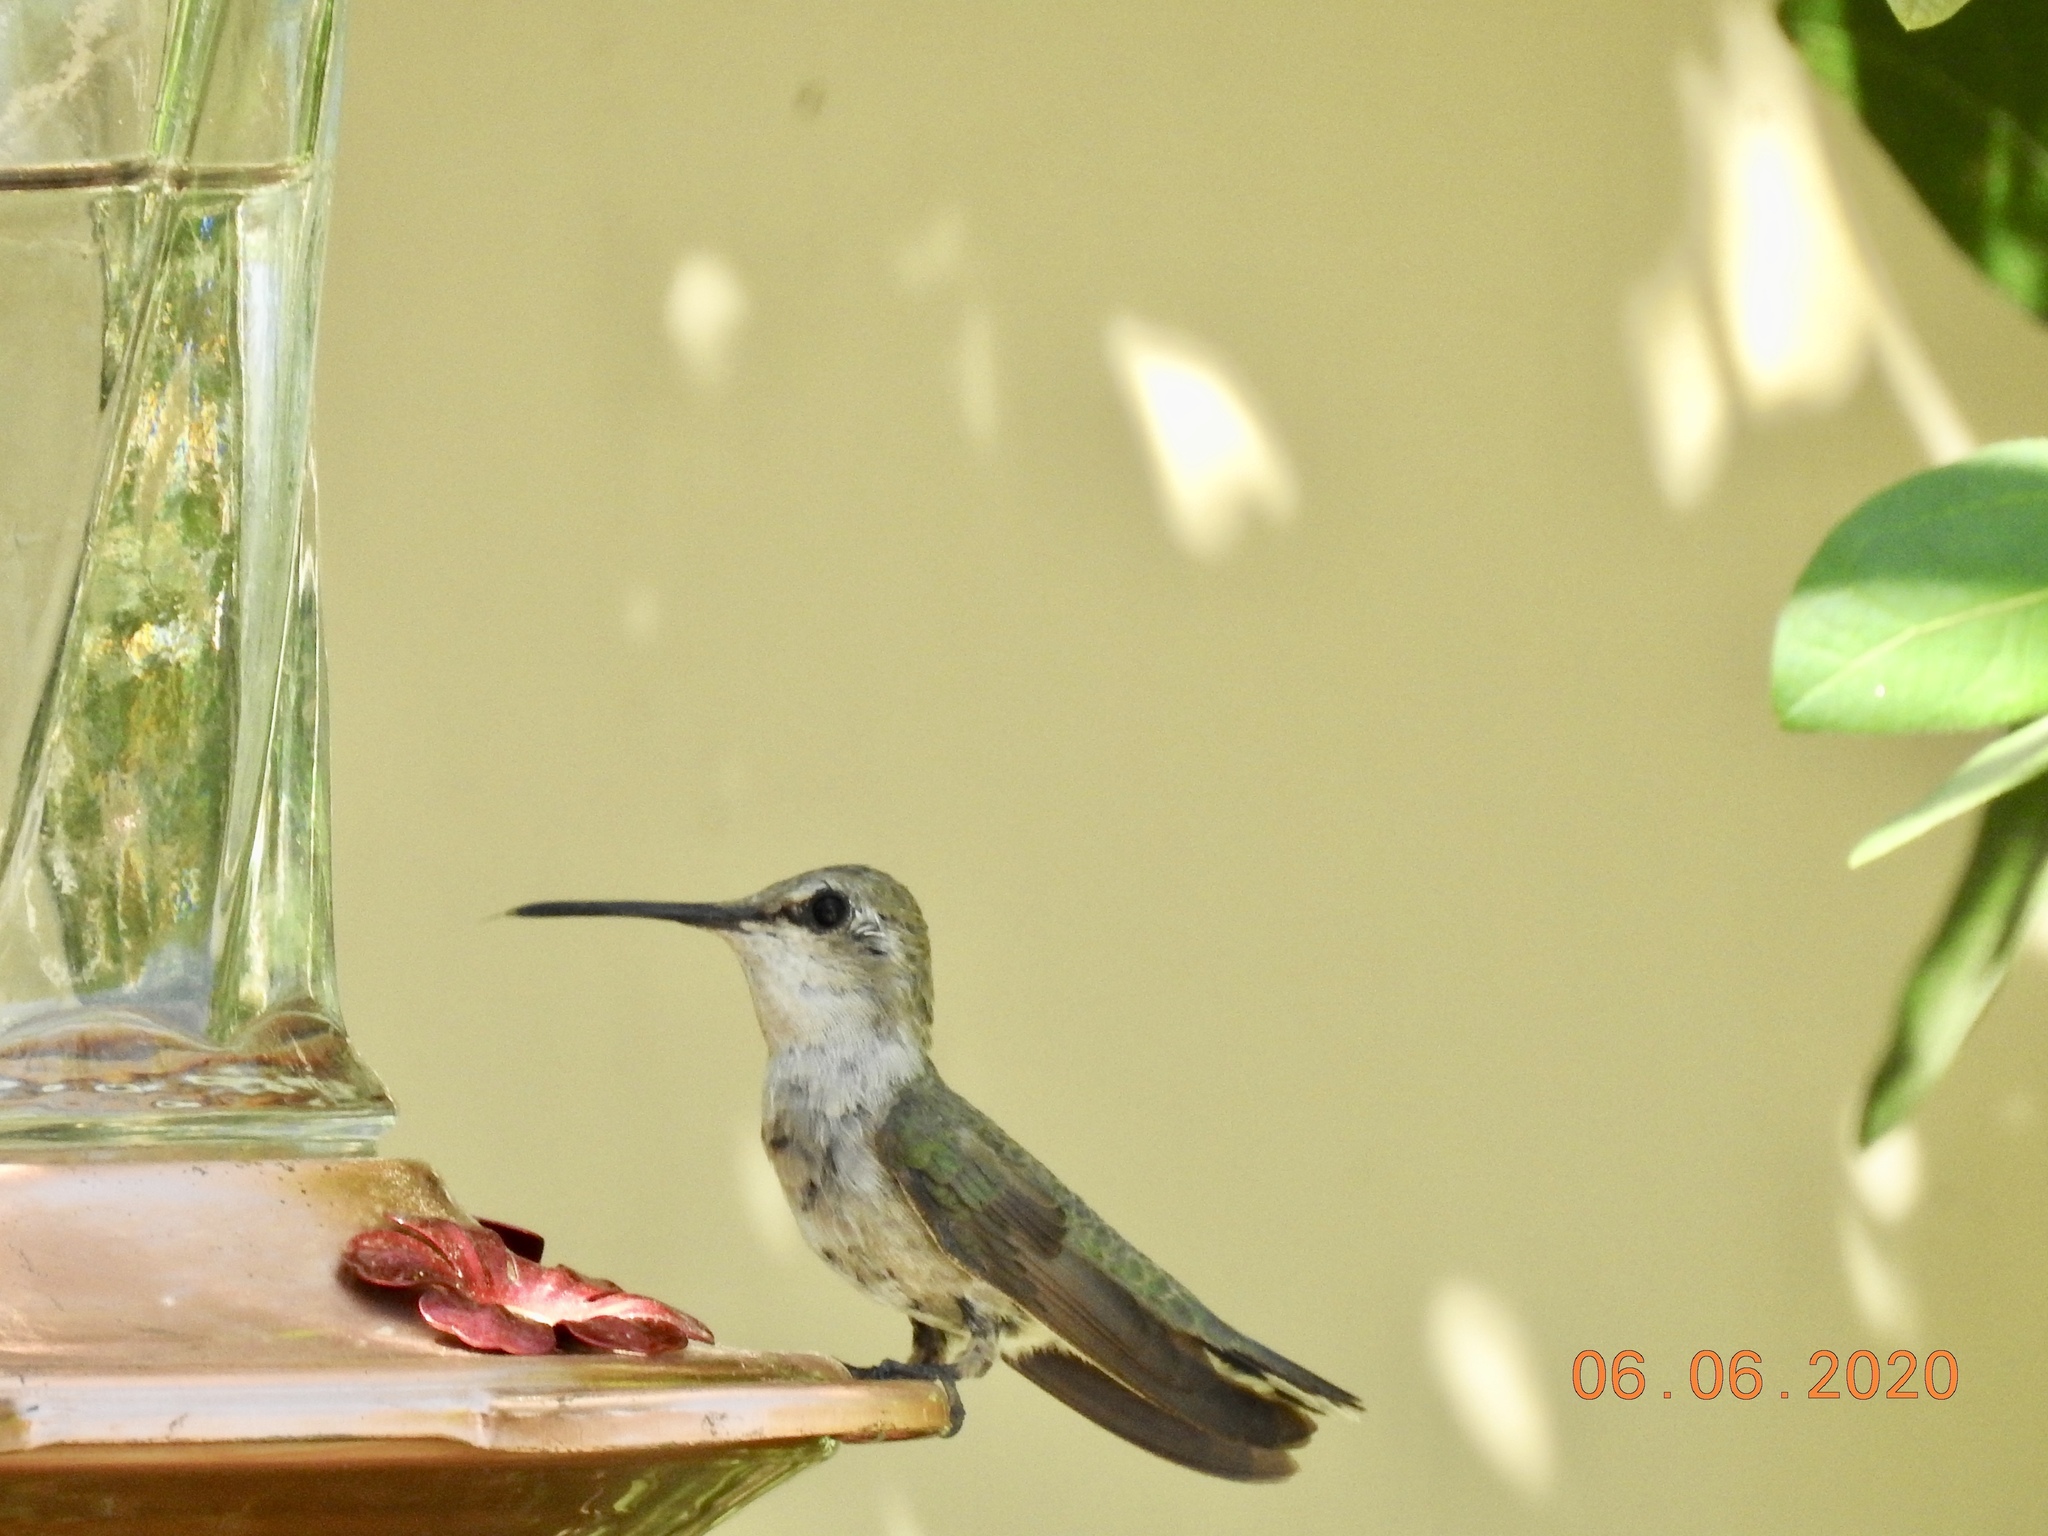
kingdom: Animalia
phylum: Chordata
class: Aves
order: Apodiformes
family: Trochilidae
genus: Calypte
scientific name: Calypte costae
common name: Costa's hummingbird
